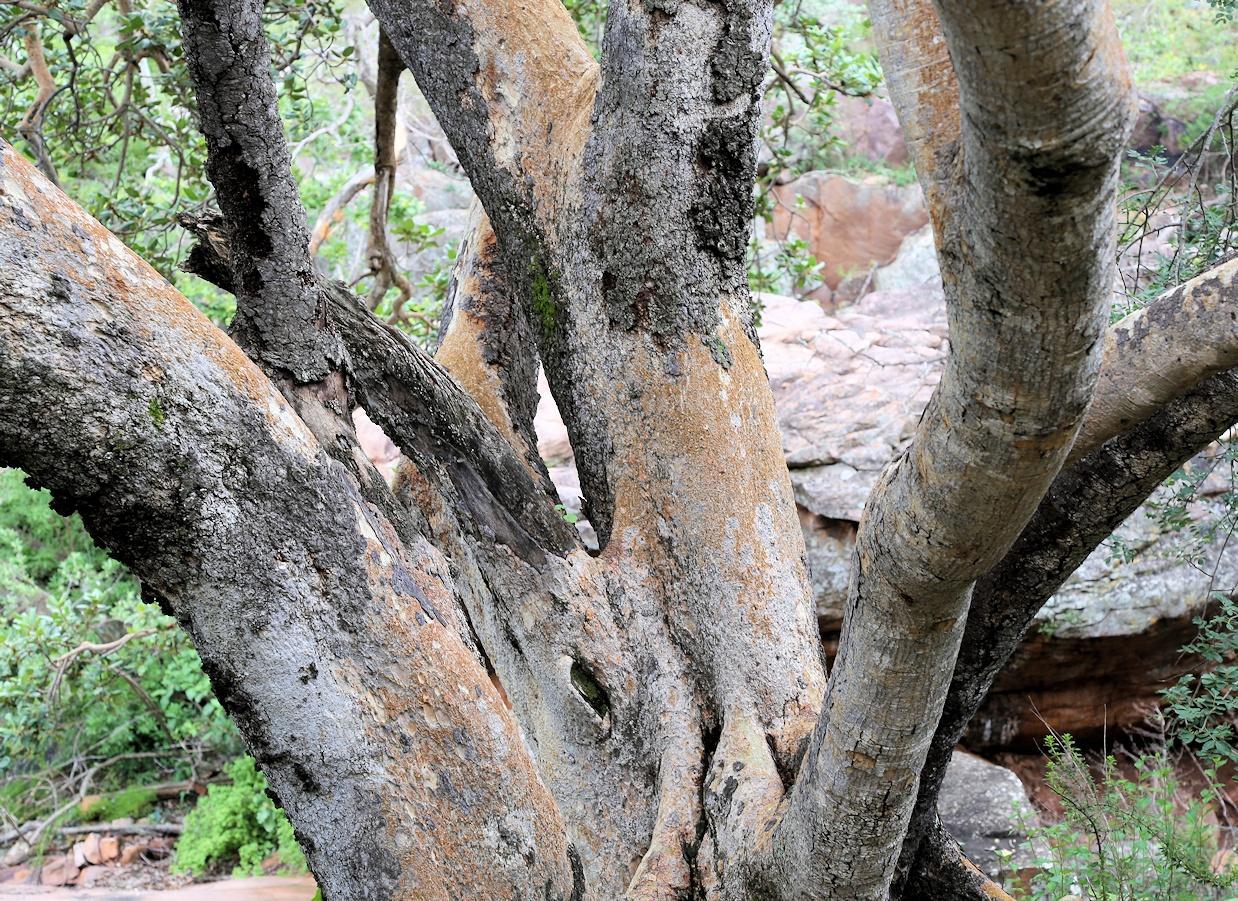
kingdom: Plantae
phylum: Tracheophyta
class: Magnoliopsida
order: Rosales
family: Moraceae
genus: Ficus
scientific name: Ficus glumosa
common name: Hairy rock fig
